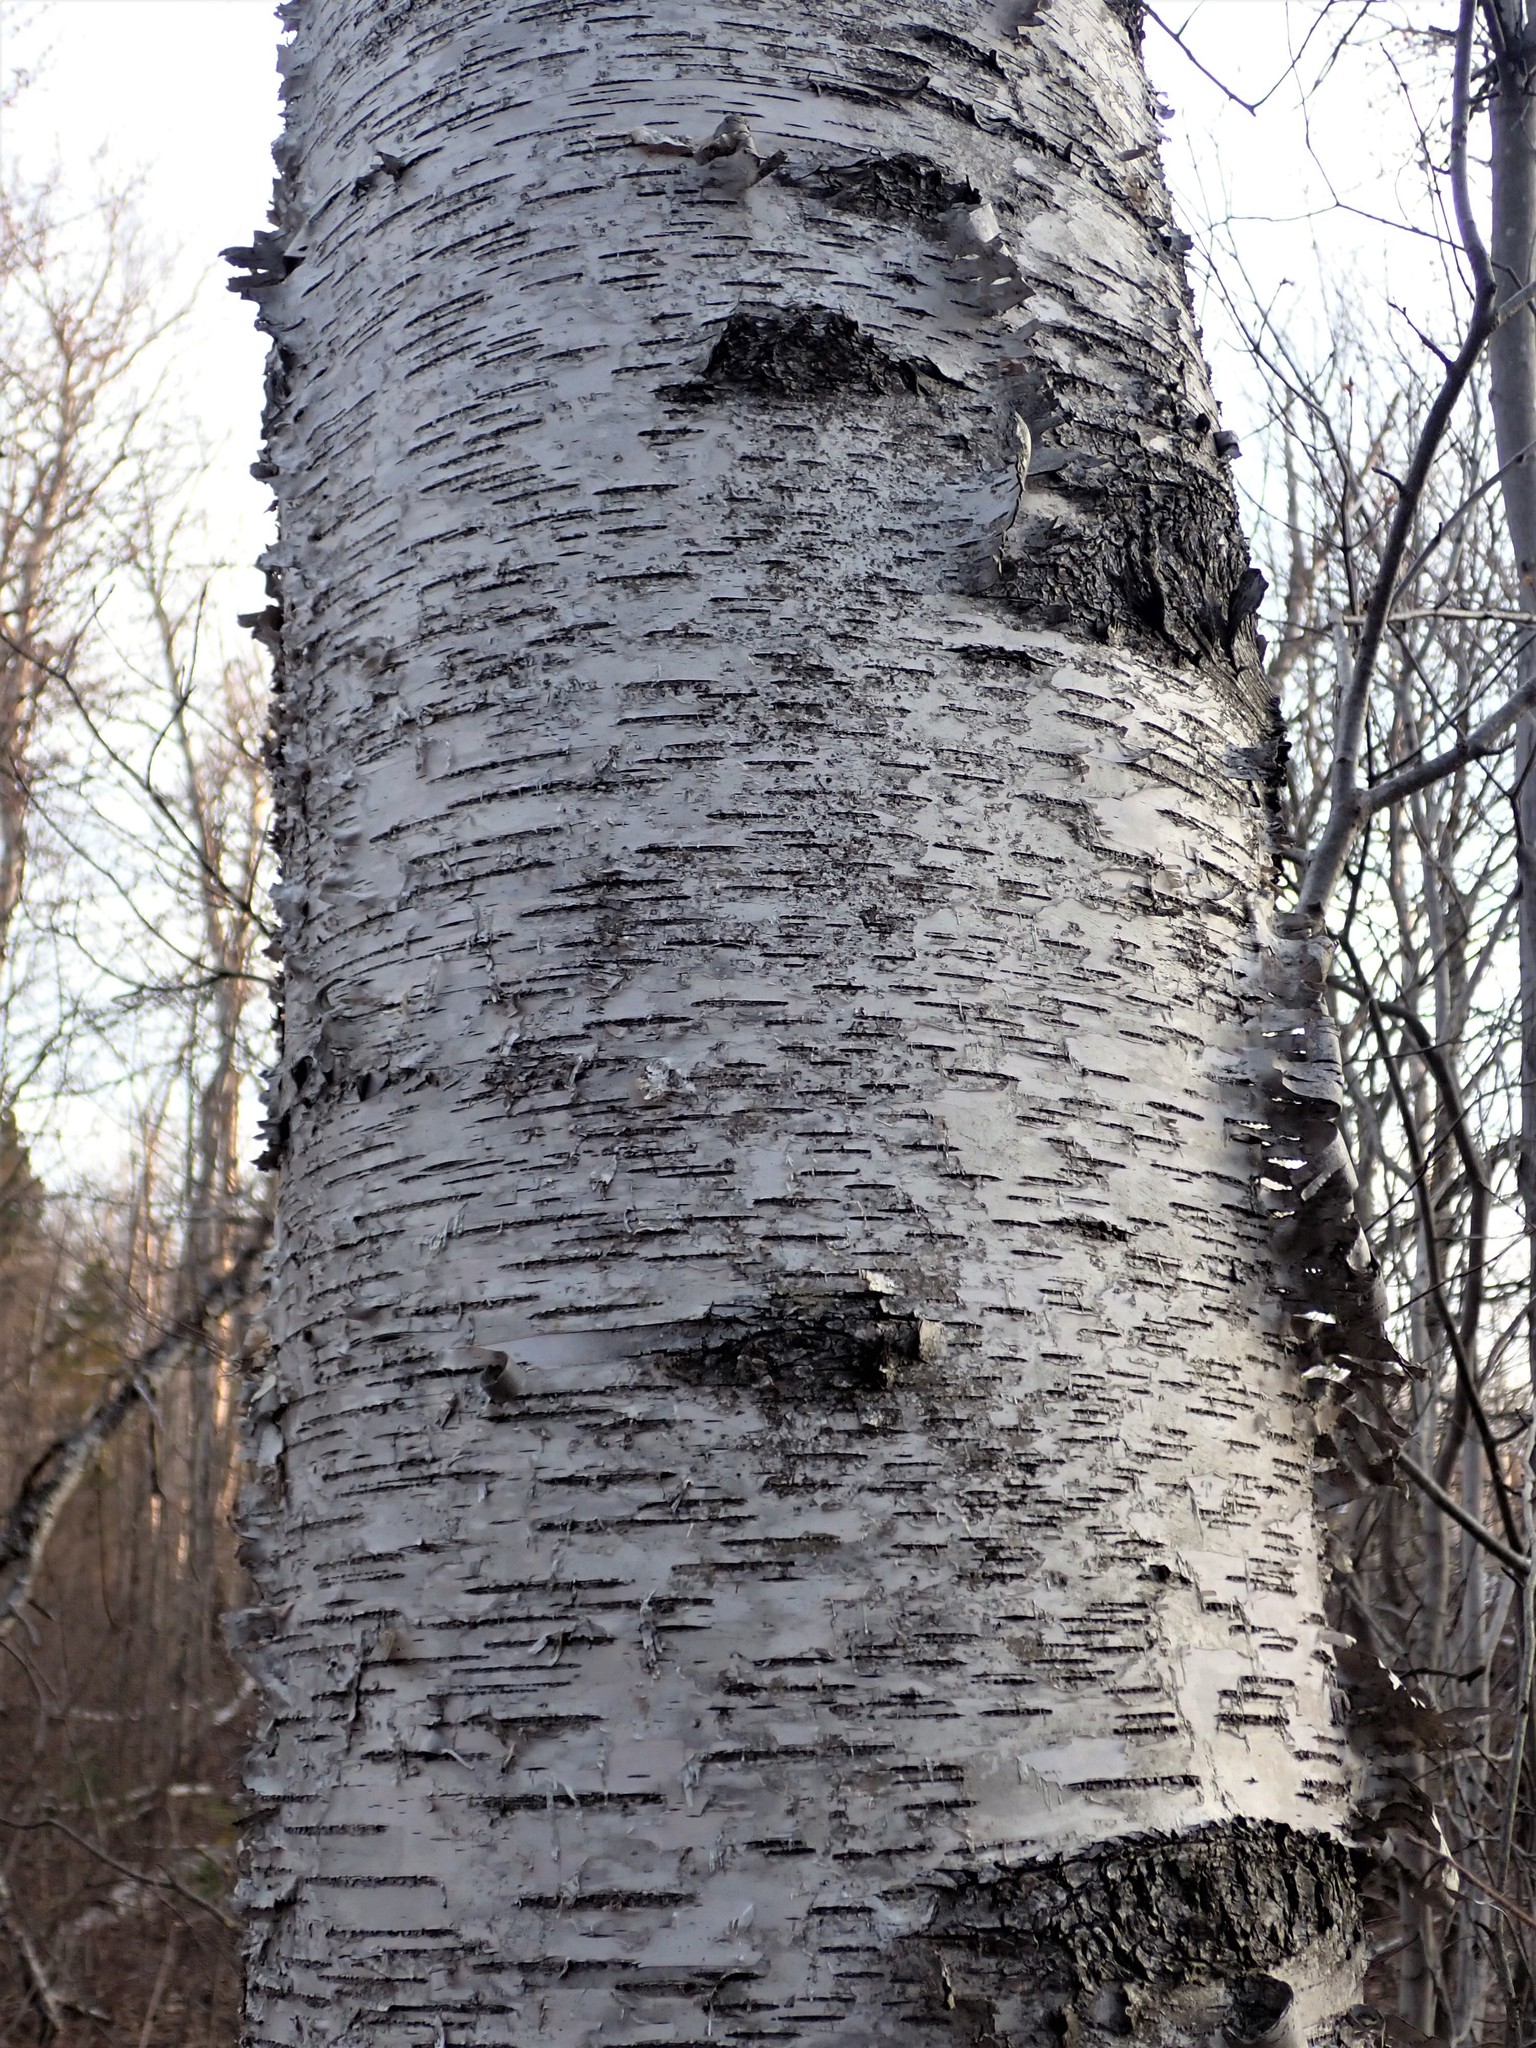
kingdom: Plantae
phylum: Tracheophyta
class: Magnoliopsida
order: Fagales
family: Betulaceae
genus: Betula
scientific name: Betula papyrifera
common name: Paper birch
